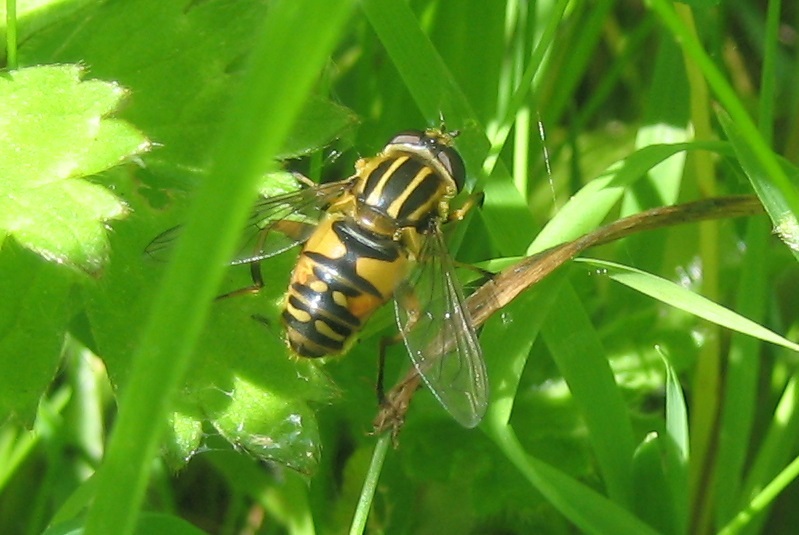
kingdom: Animalia
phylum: Arthropoda
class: Insecta
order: Diptera
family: Syrphidae
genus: Helophilus
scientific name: Helophilus pendulus
